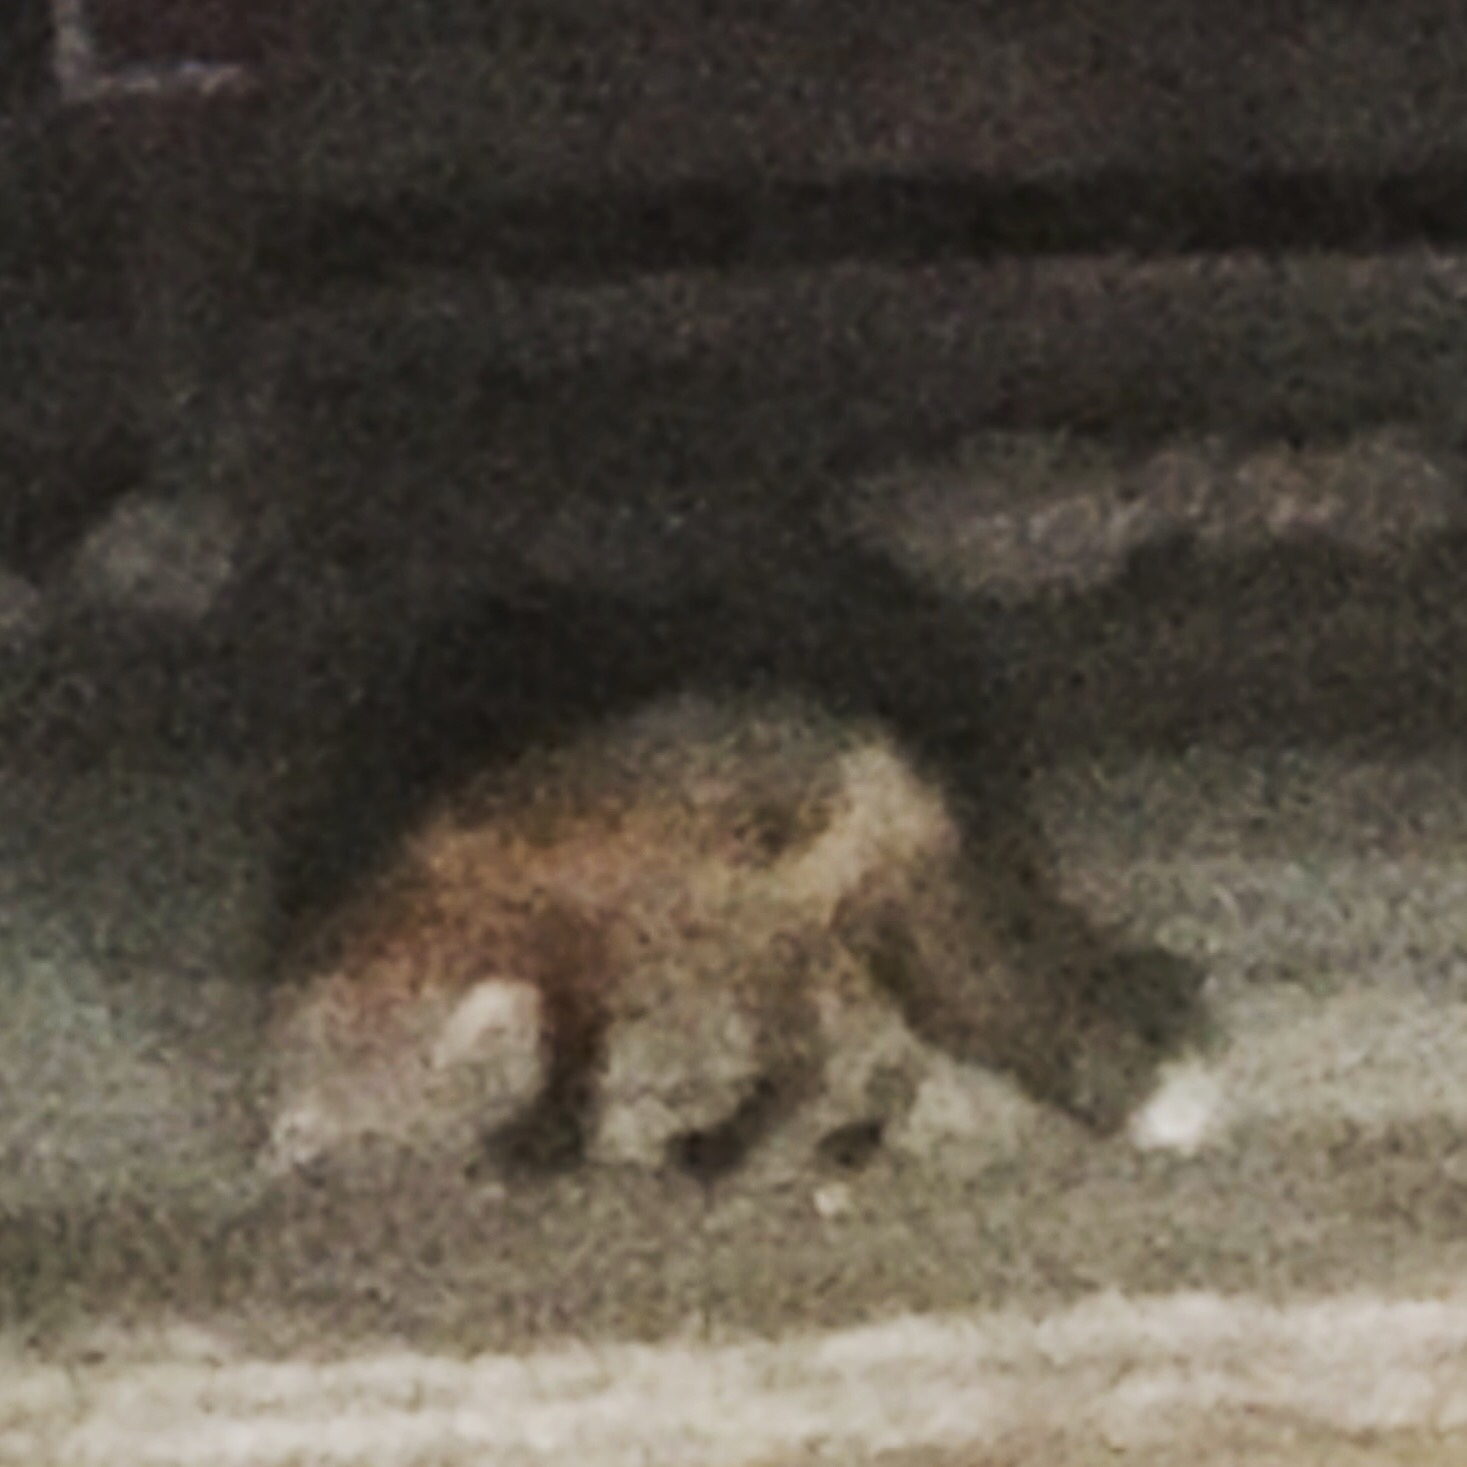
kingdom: Animalia
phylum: Chordata
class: Mammalia
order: Carnivora
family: Canidae
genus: Vulpes
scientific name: Vulpes vulpes
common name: Red fox
